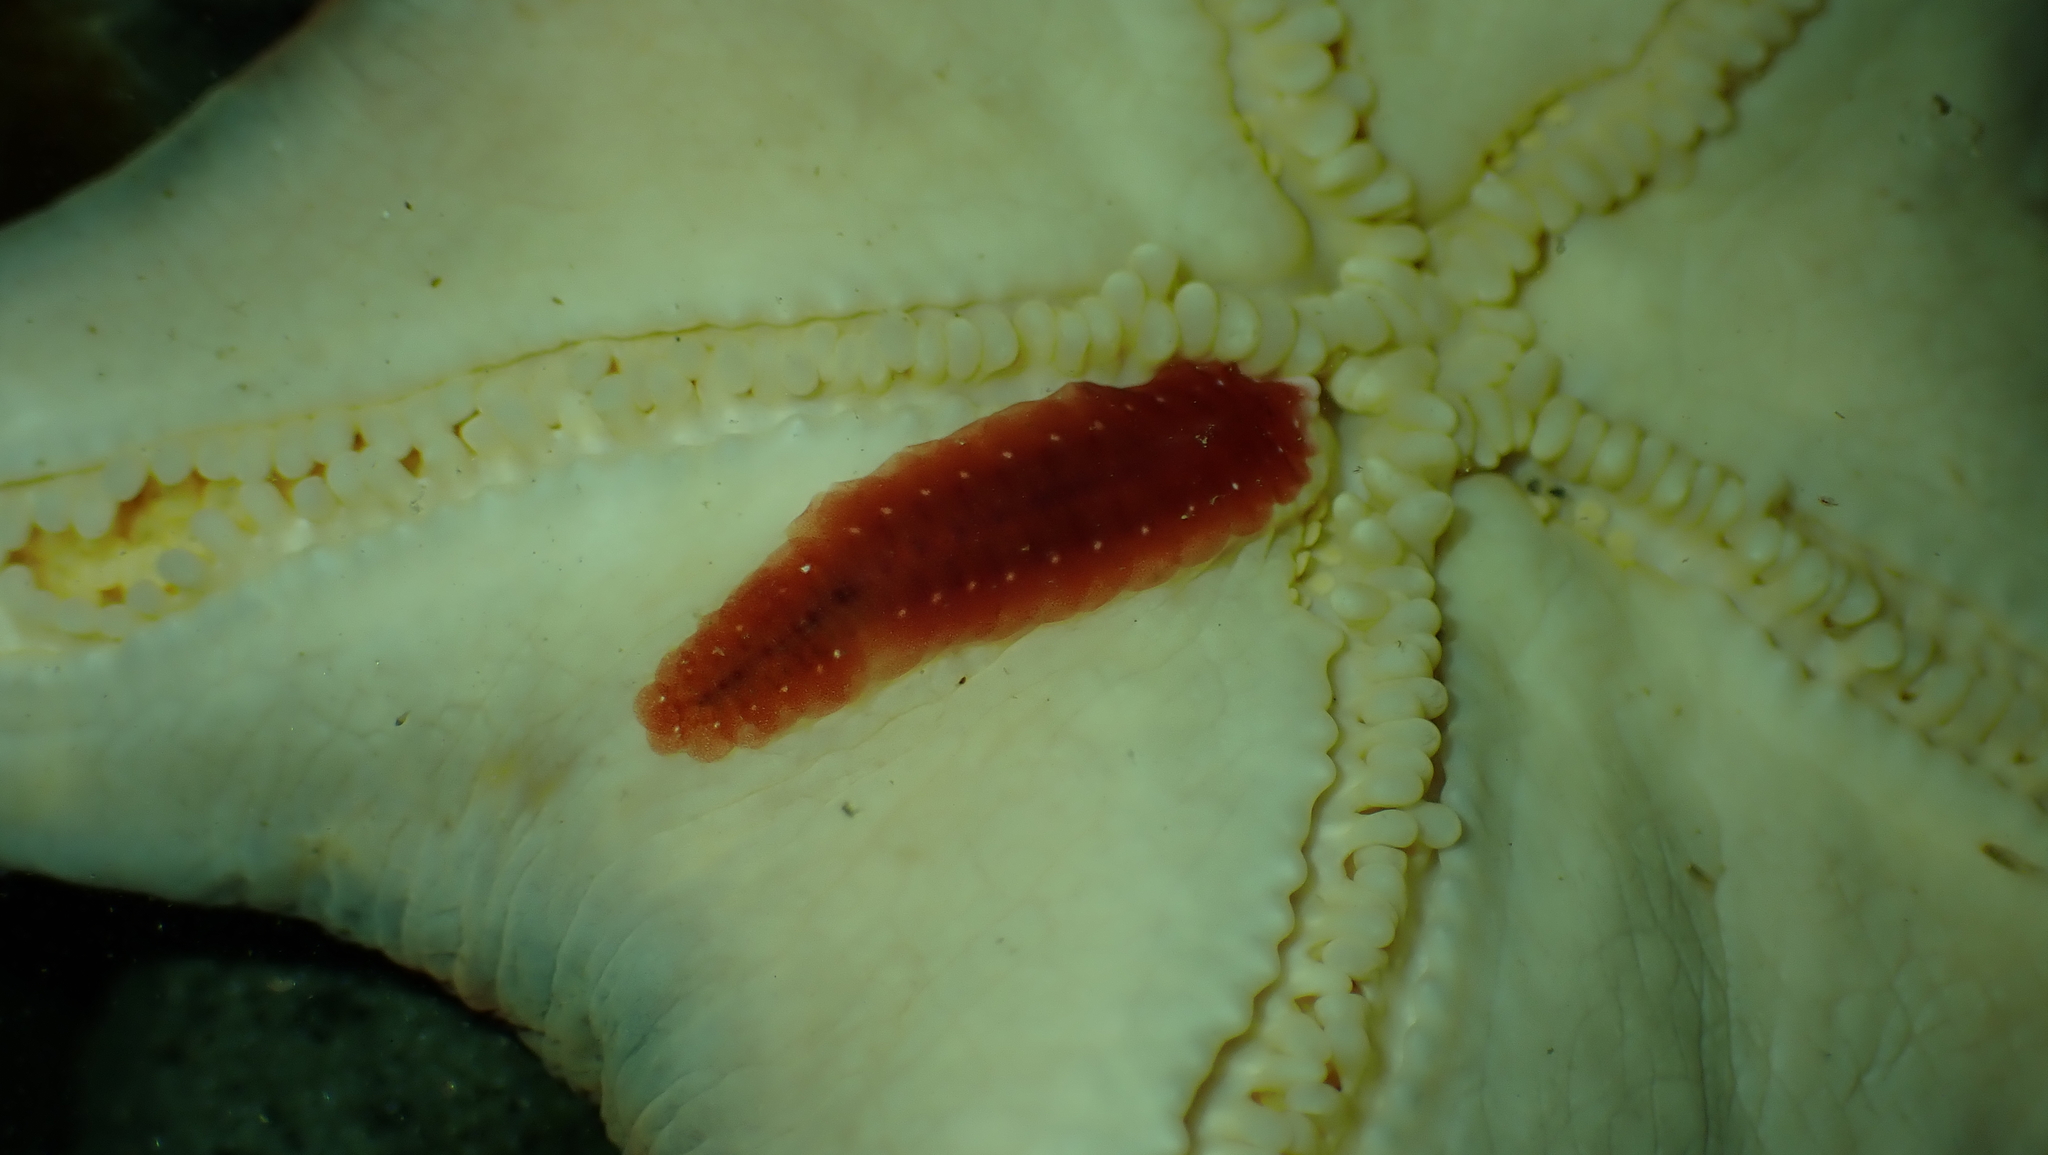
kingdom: Animalia
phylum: Annelida
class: Polychaeta
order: Phyllodocida
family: Polynoidae
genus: Arctonoe
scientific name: Arctonoe pulchra
